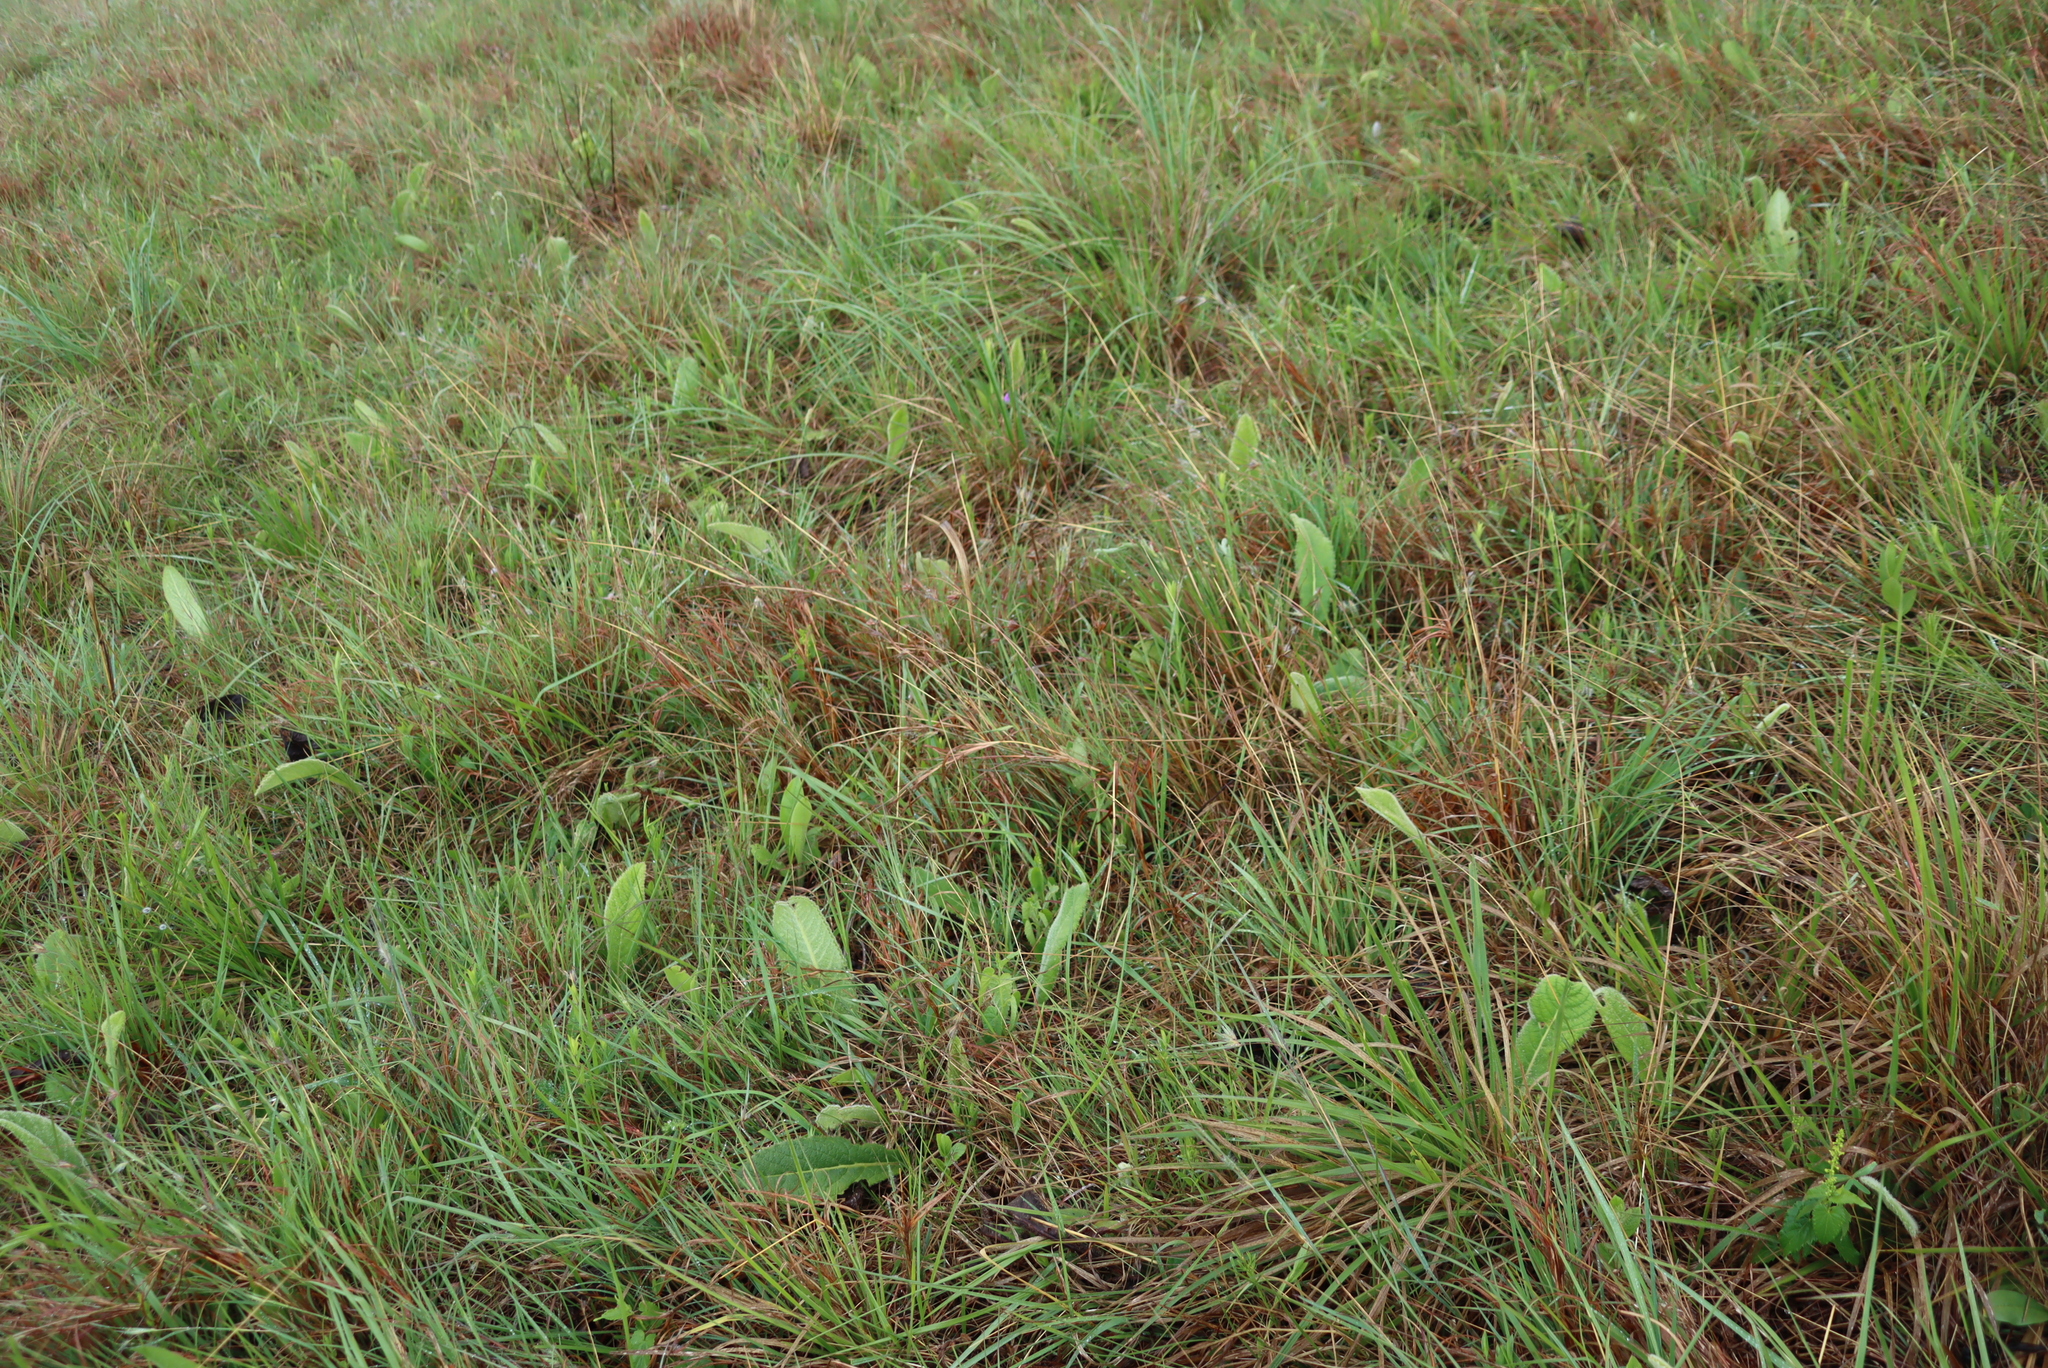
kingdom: Plantae
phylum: Tracheophyta
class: Liliopsida
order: Poales
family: Poaceae
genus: Themeda
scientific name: Themeda triandra
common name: Kangaroo grass
